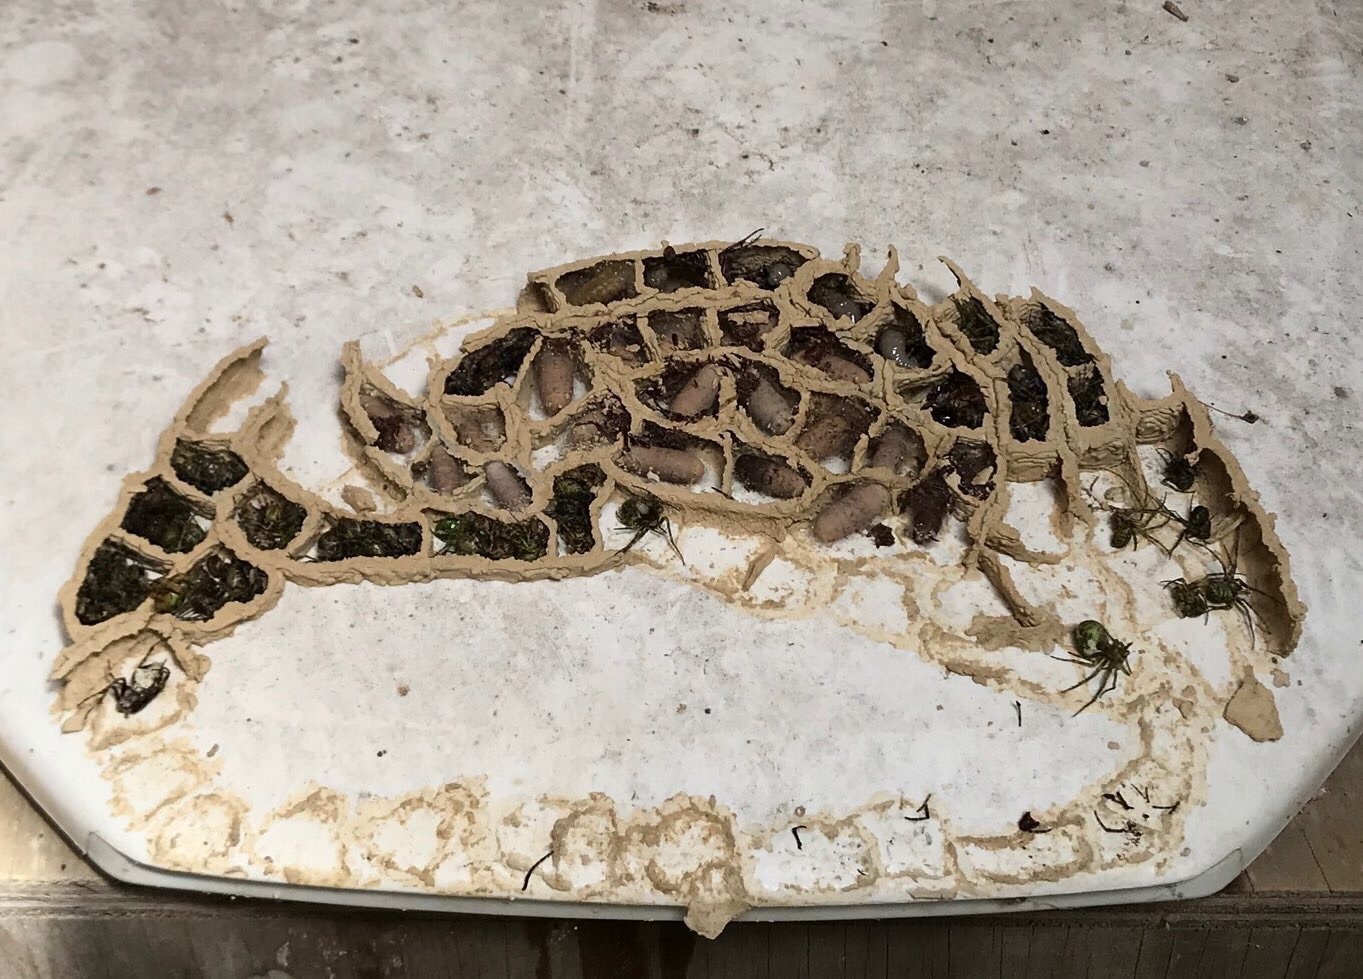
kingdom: Animalia
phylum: Arthropoda
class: Insecta
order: Hymenoptera
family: Crabronidae
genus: Pison
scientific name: Pison spinolae
